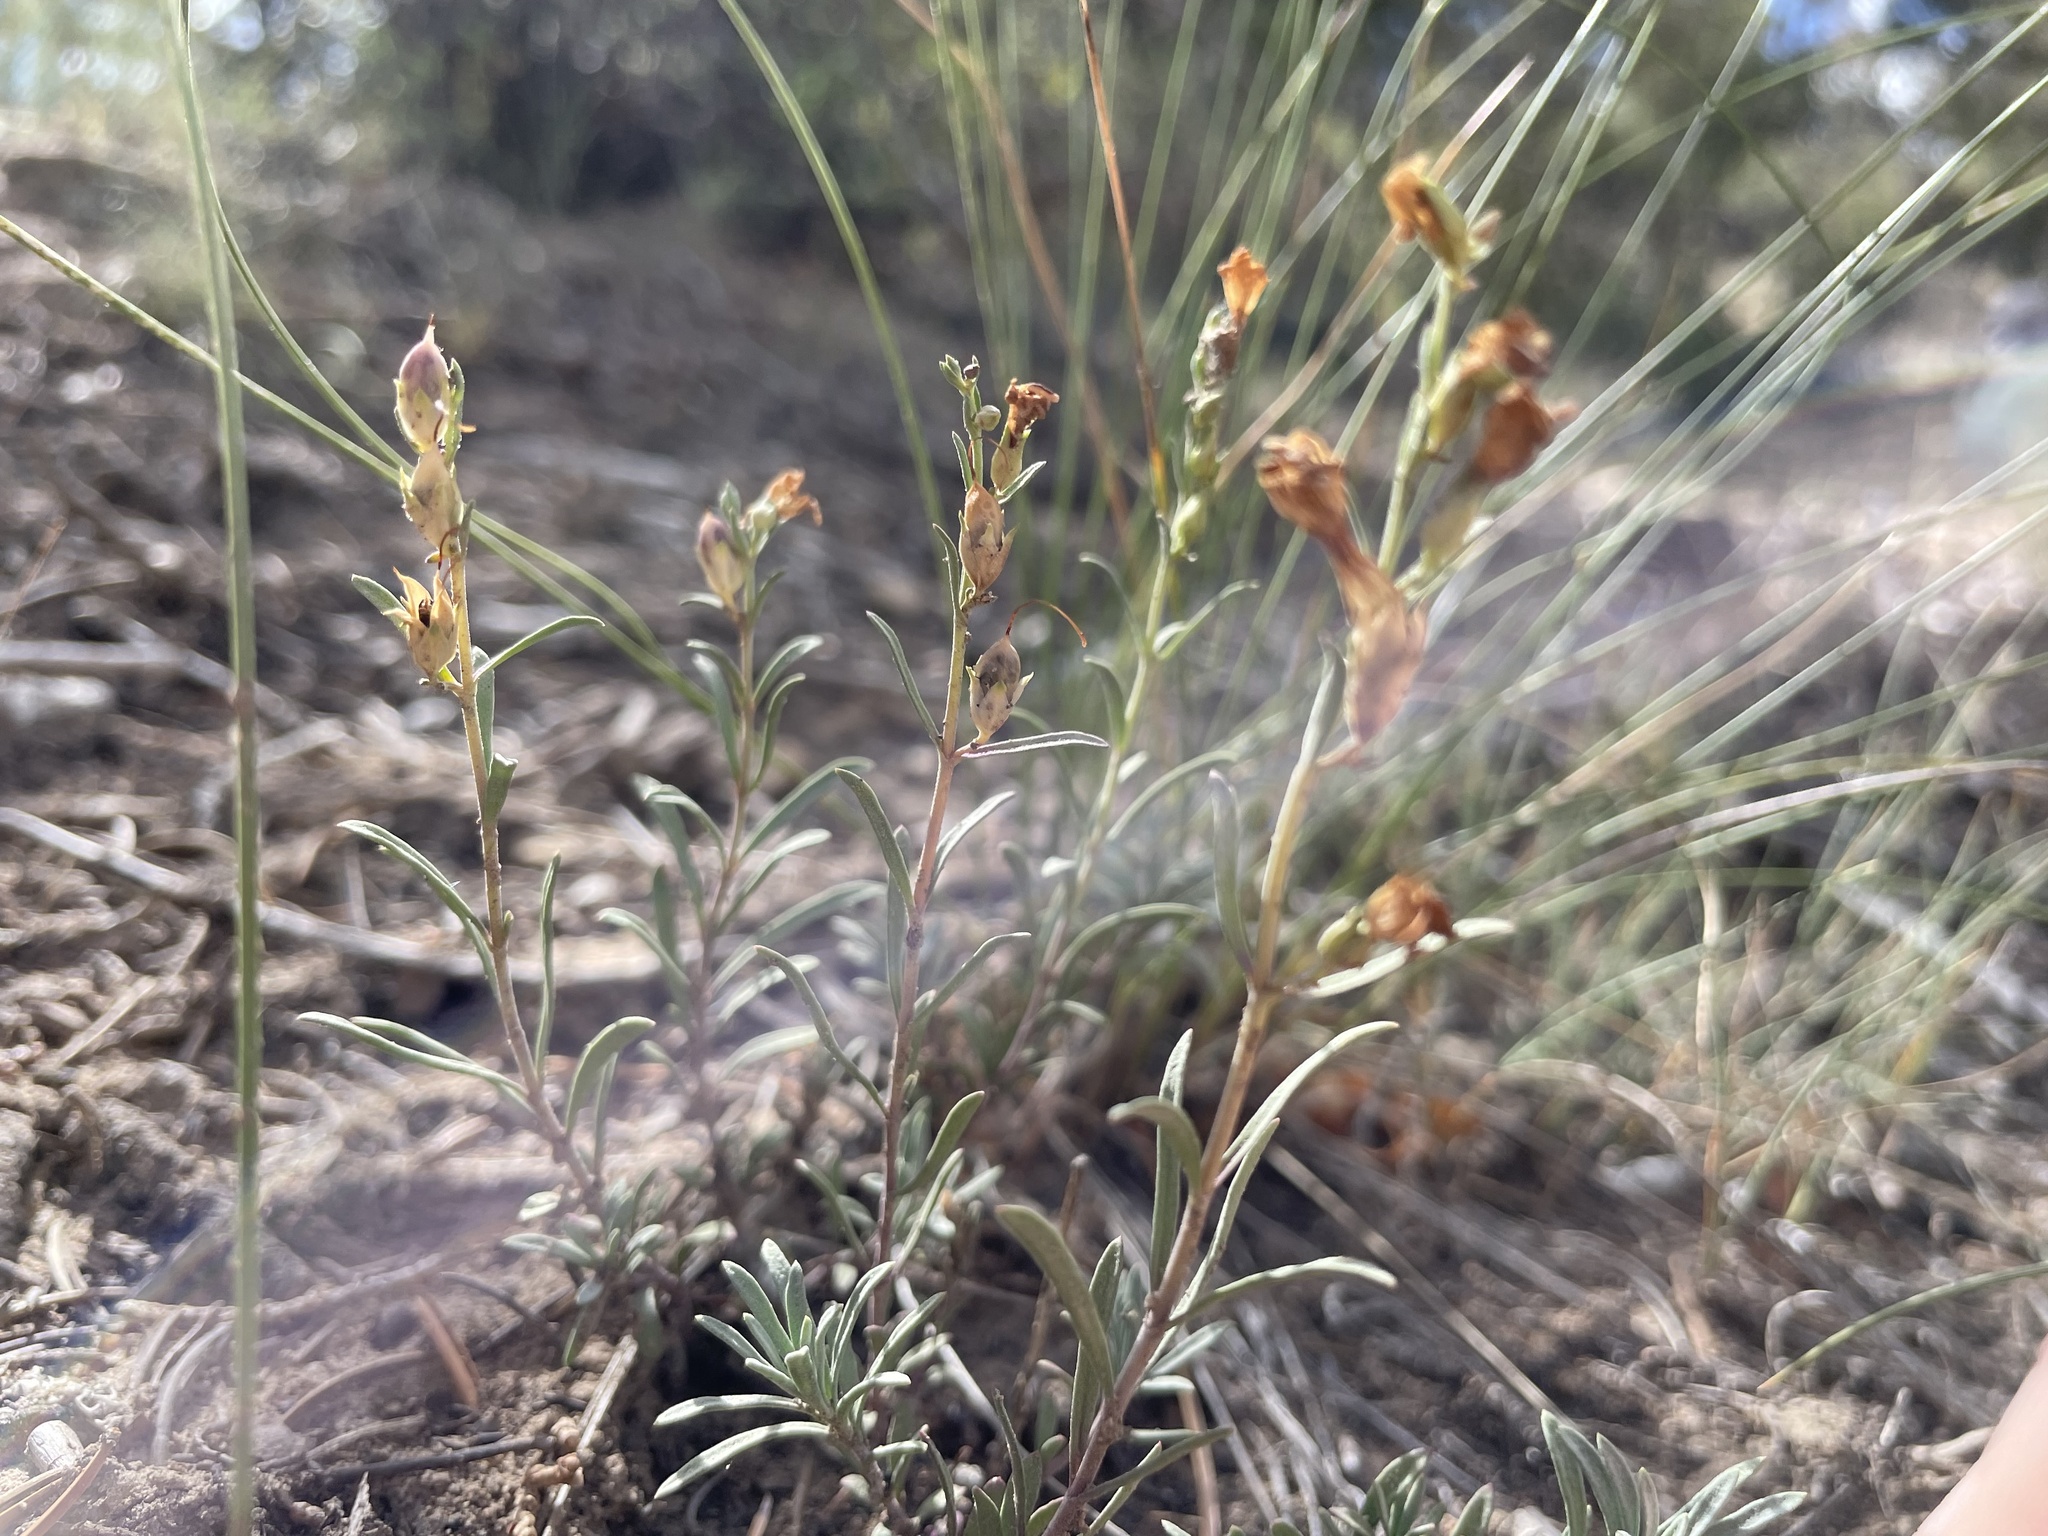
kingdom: Plantae
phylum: Tracheophyta
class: Magnoliopsida
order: Lamiales
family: Plantaginaceae
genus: Penstemon
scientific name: Penstemon linarioides
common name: Siler's penstemon
